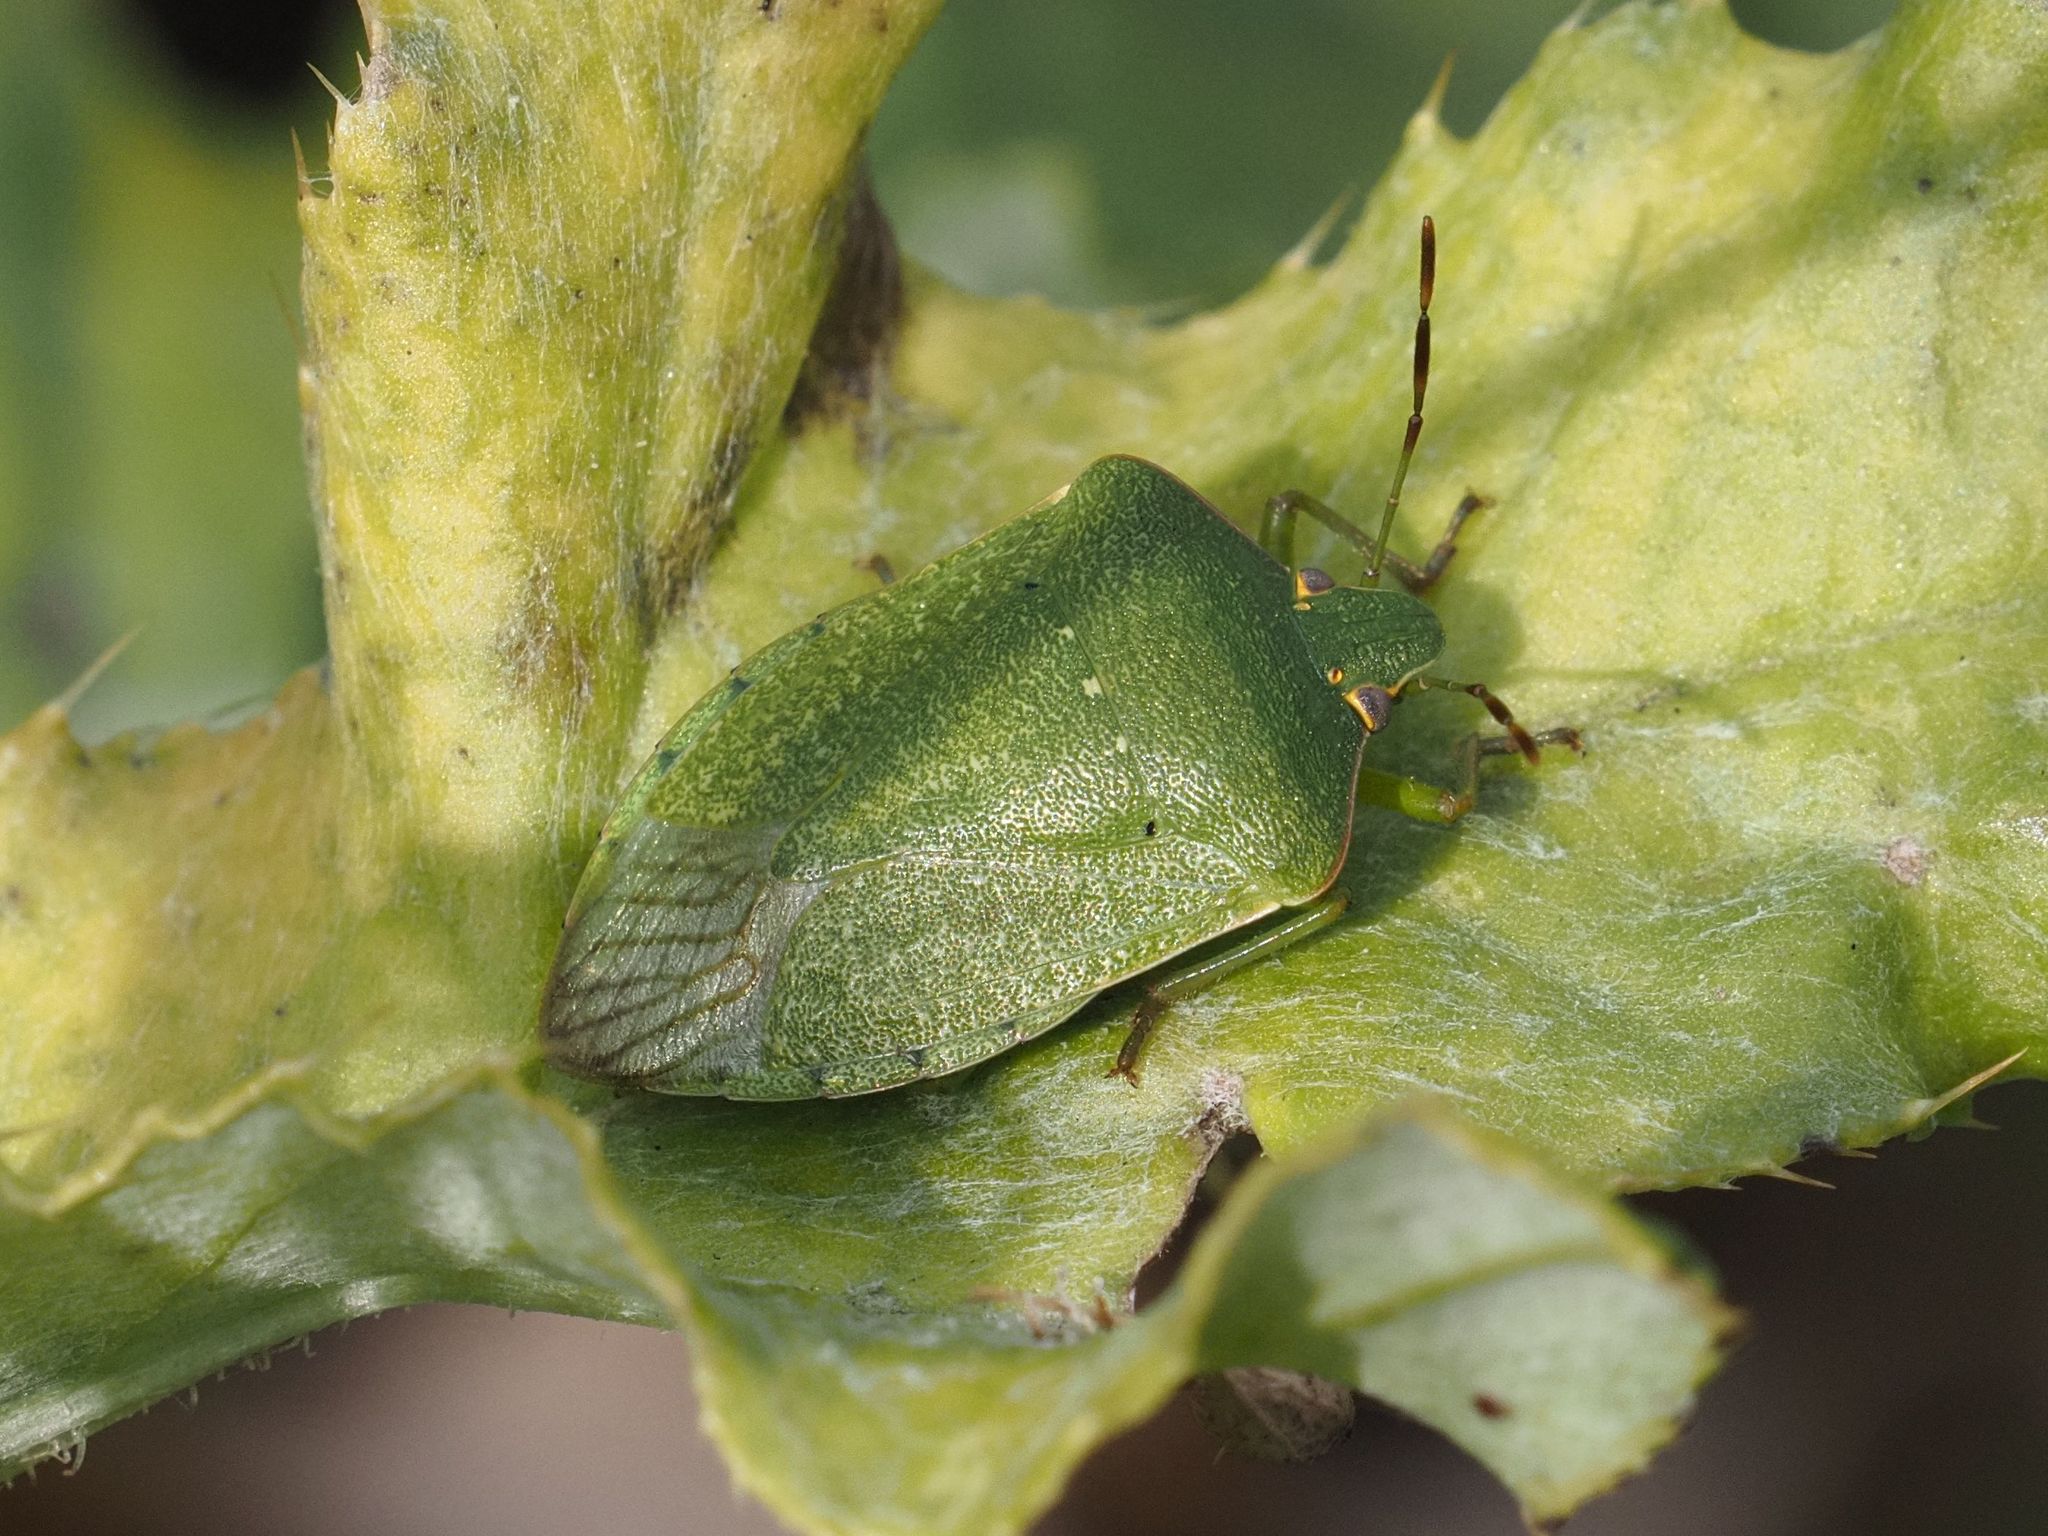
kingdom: Animalia
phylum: Arthropoda
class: Insecta
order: Hemiptera
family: Pentatomidae
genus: Nezara
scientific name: Nezara viridula
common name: Southern green stink bug
